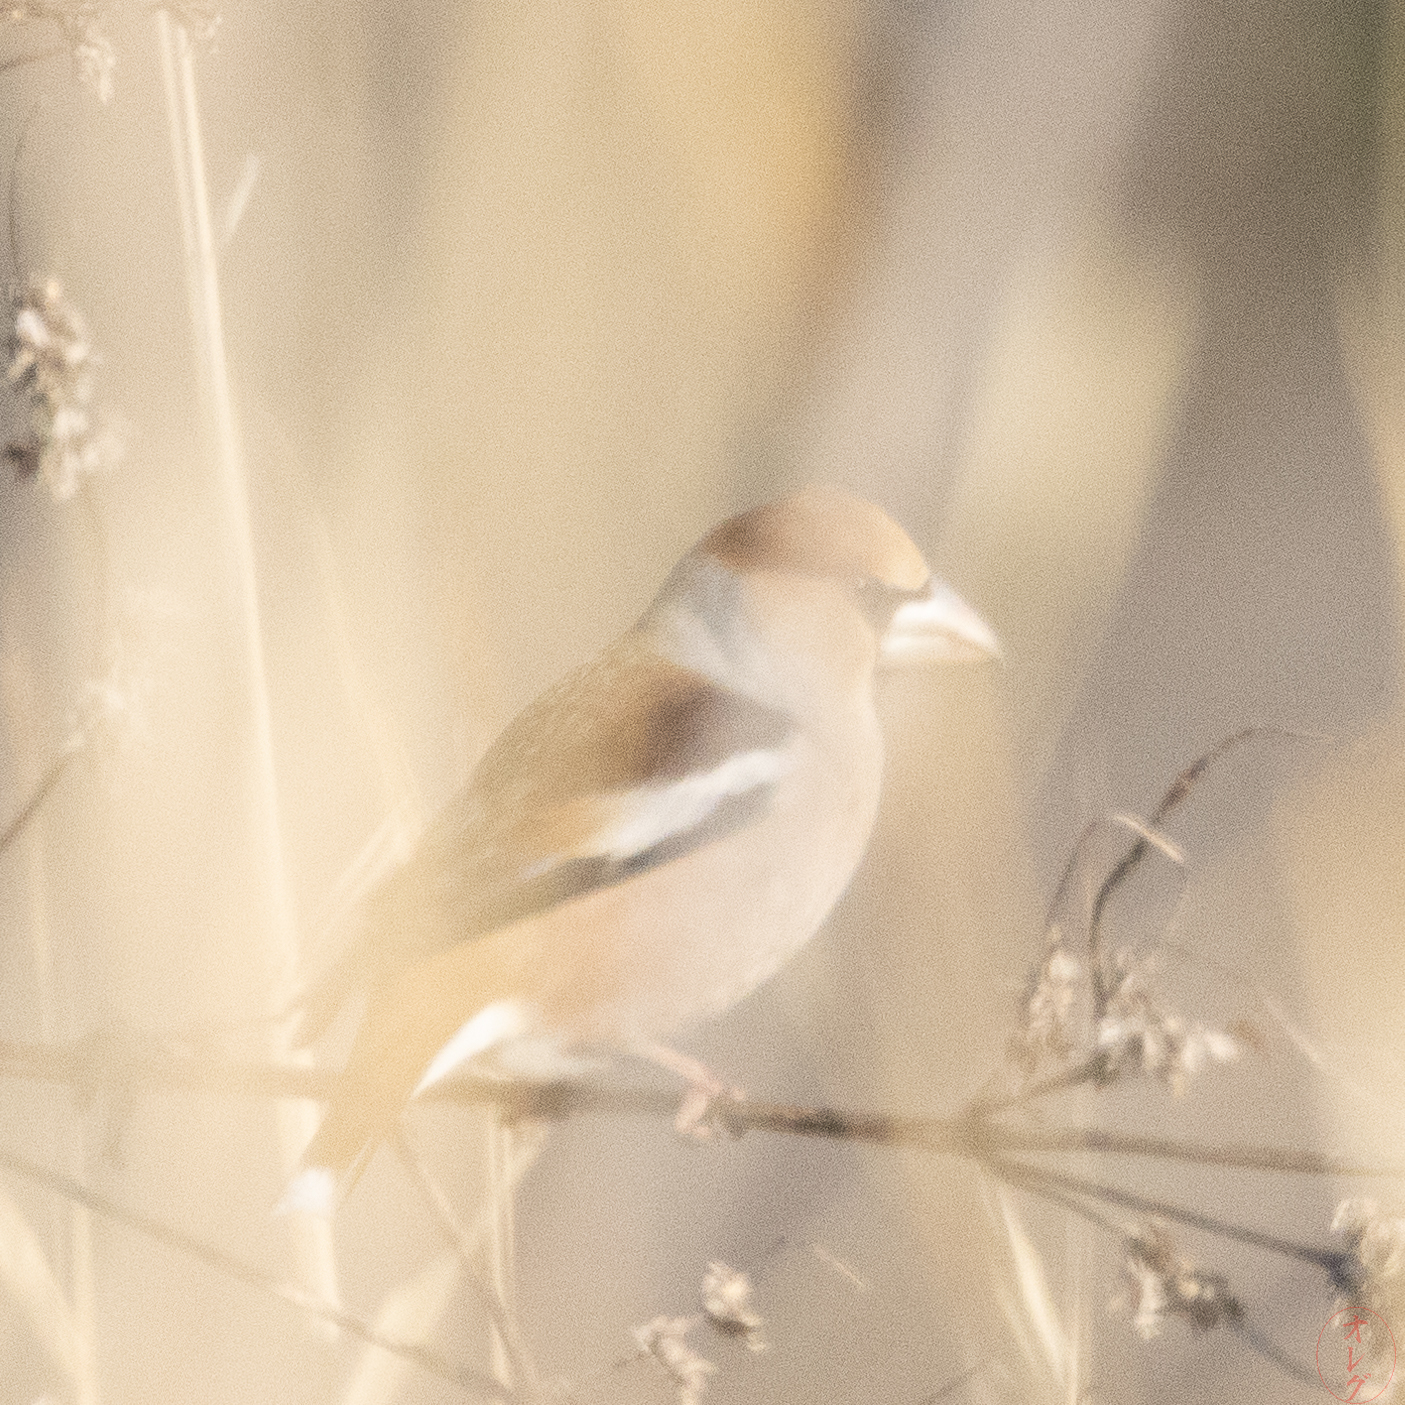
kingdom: Animalia
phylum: Chordata
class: Aves
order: Passeriformes
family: Fringillidae
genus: Coccothraustes
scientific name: Coccothraustes coccothraustes
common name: Hawfinch
